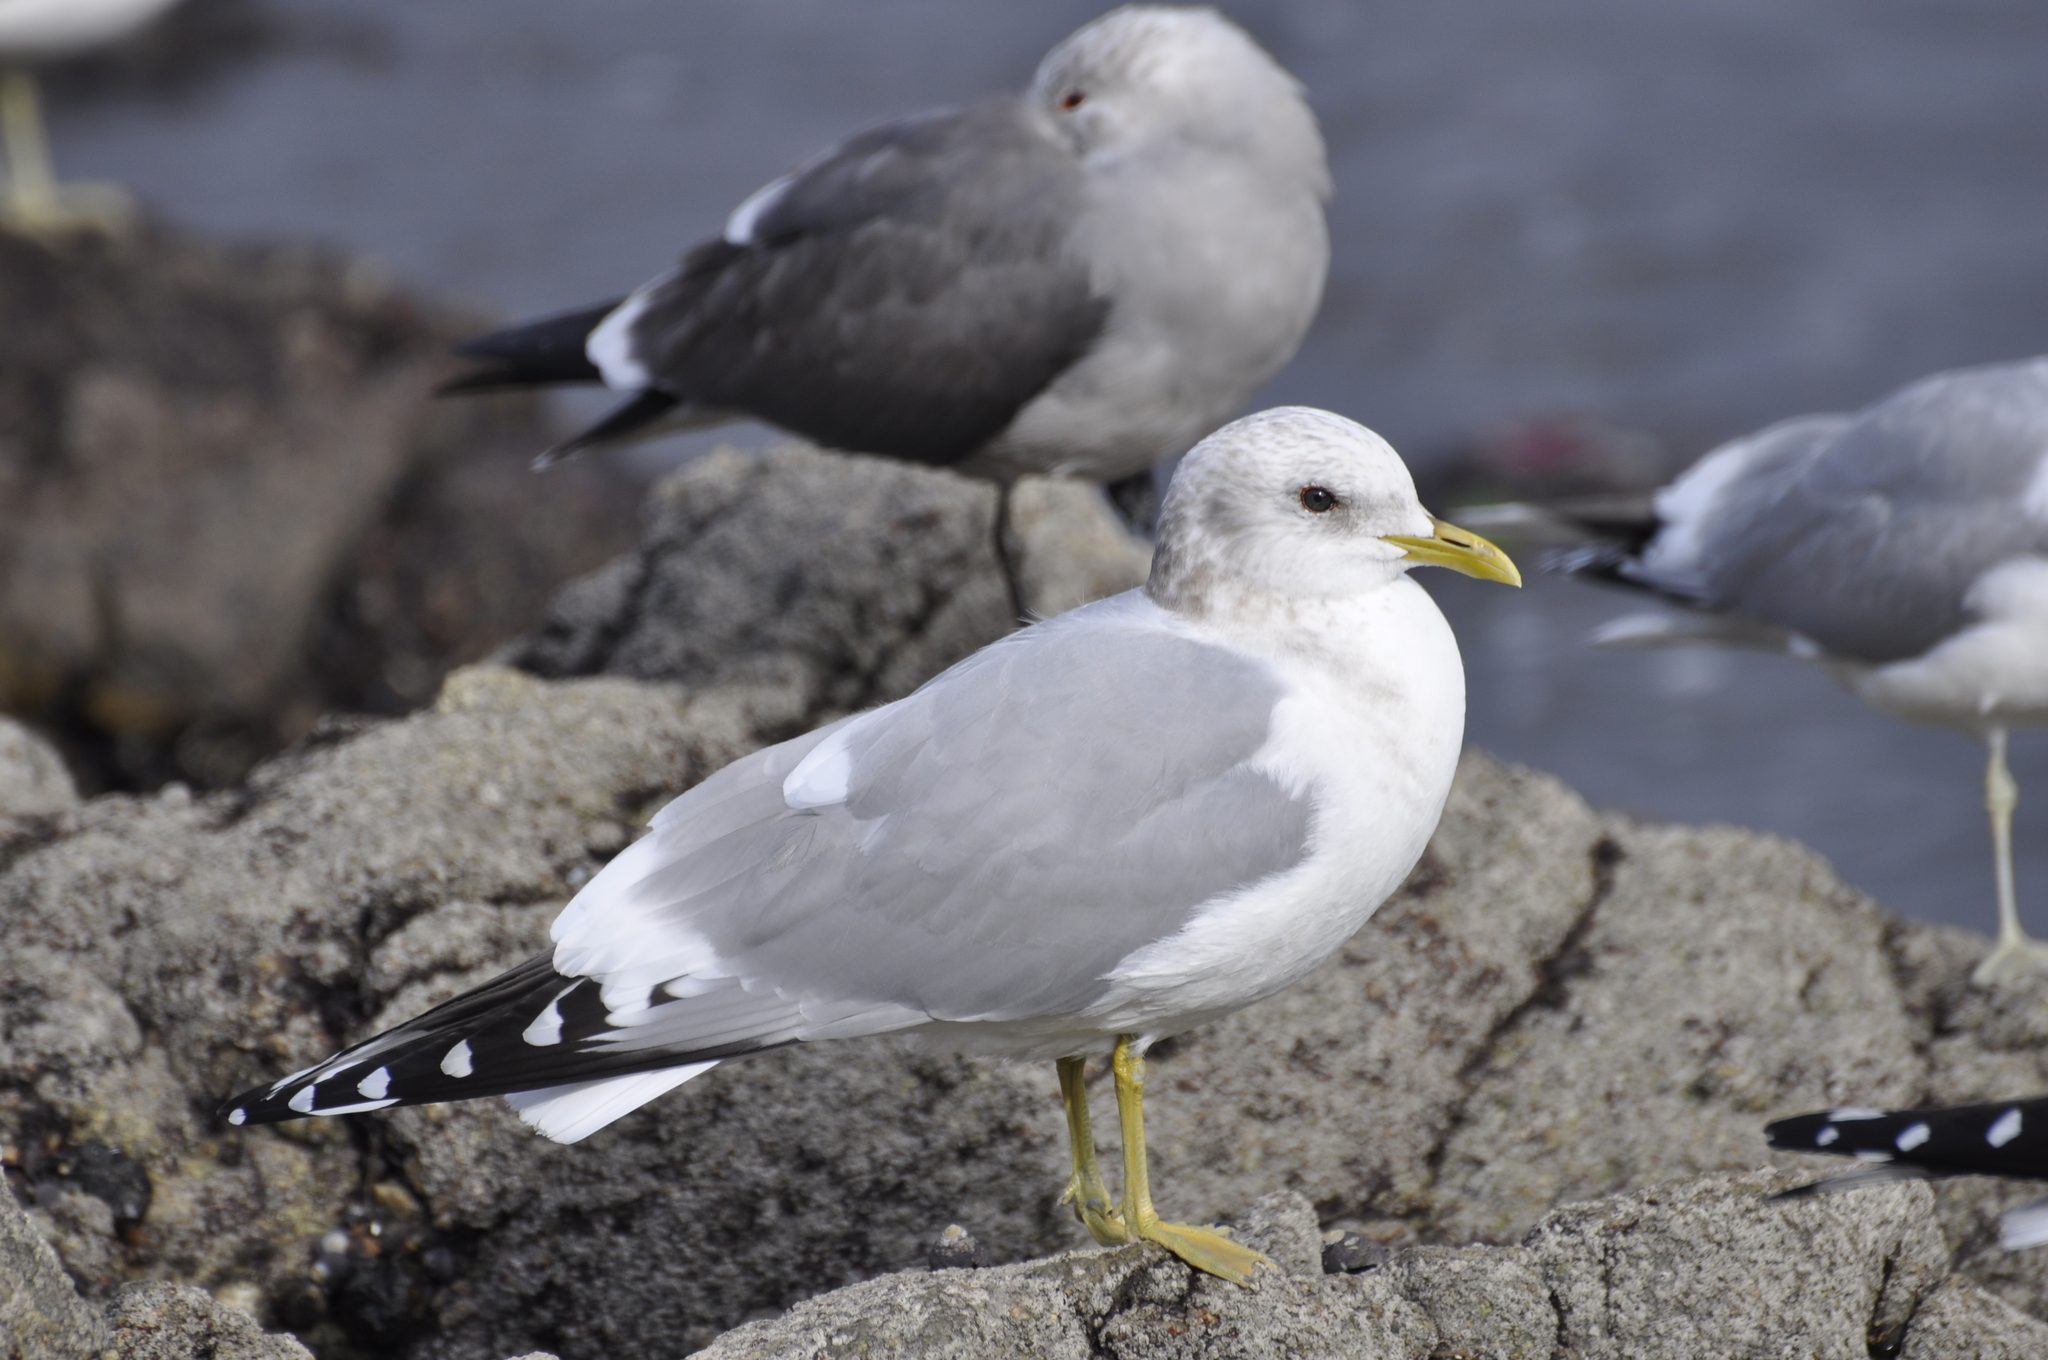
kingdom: Animalia
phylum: Chordata
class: Aves
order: Charadriiformes
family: Laridae
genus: Larus
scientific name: Larus brachyrhynchus
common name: Short-billed gull
